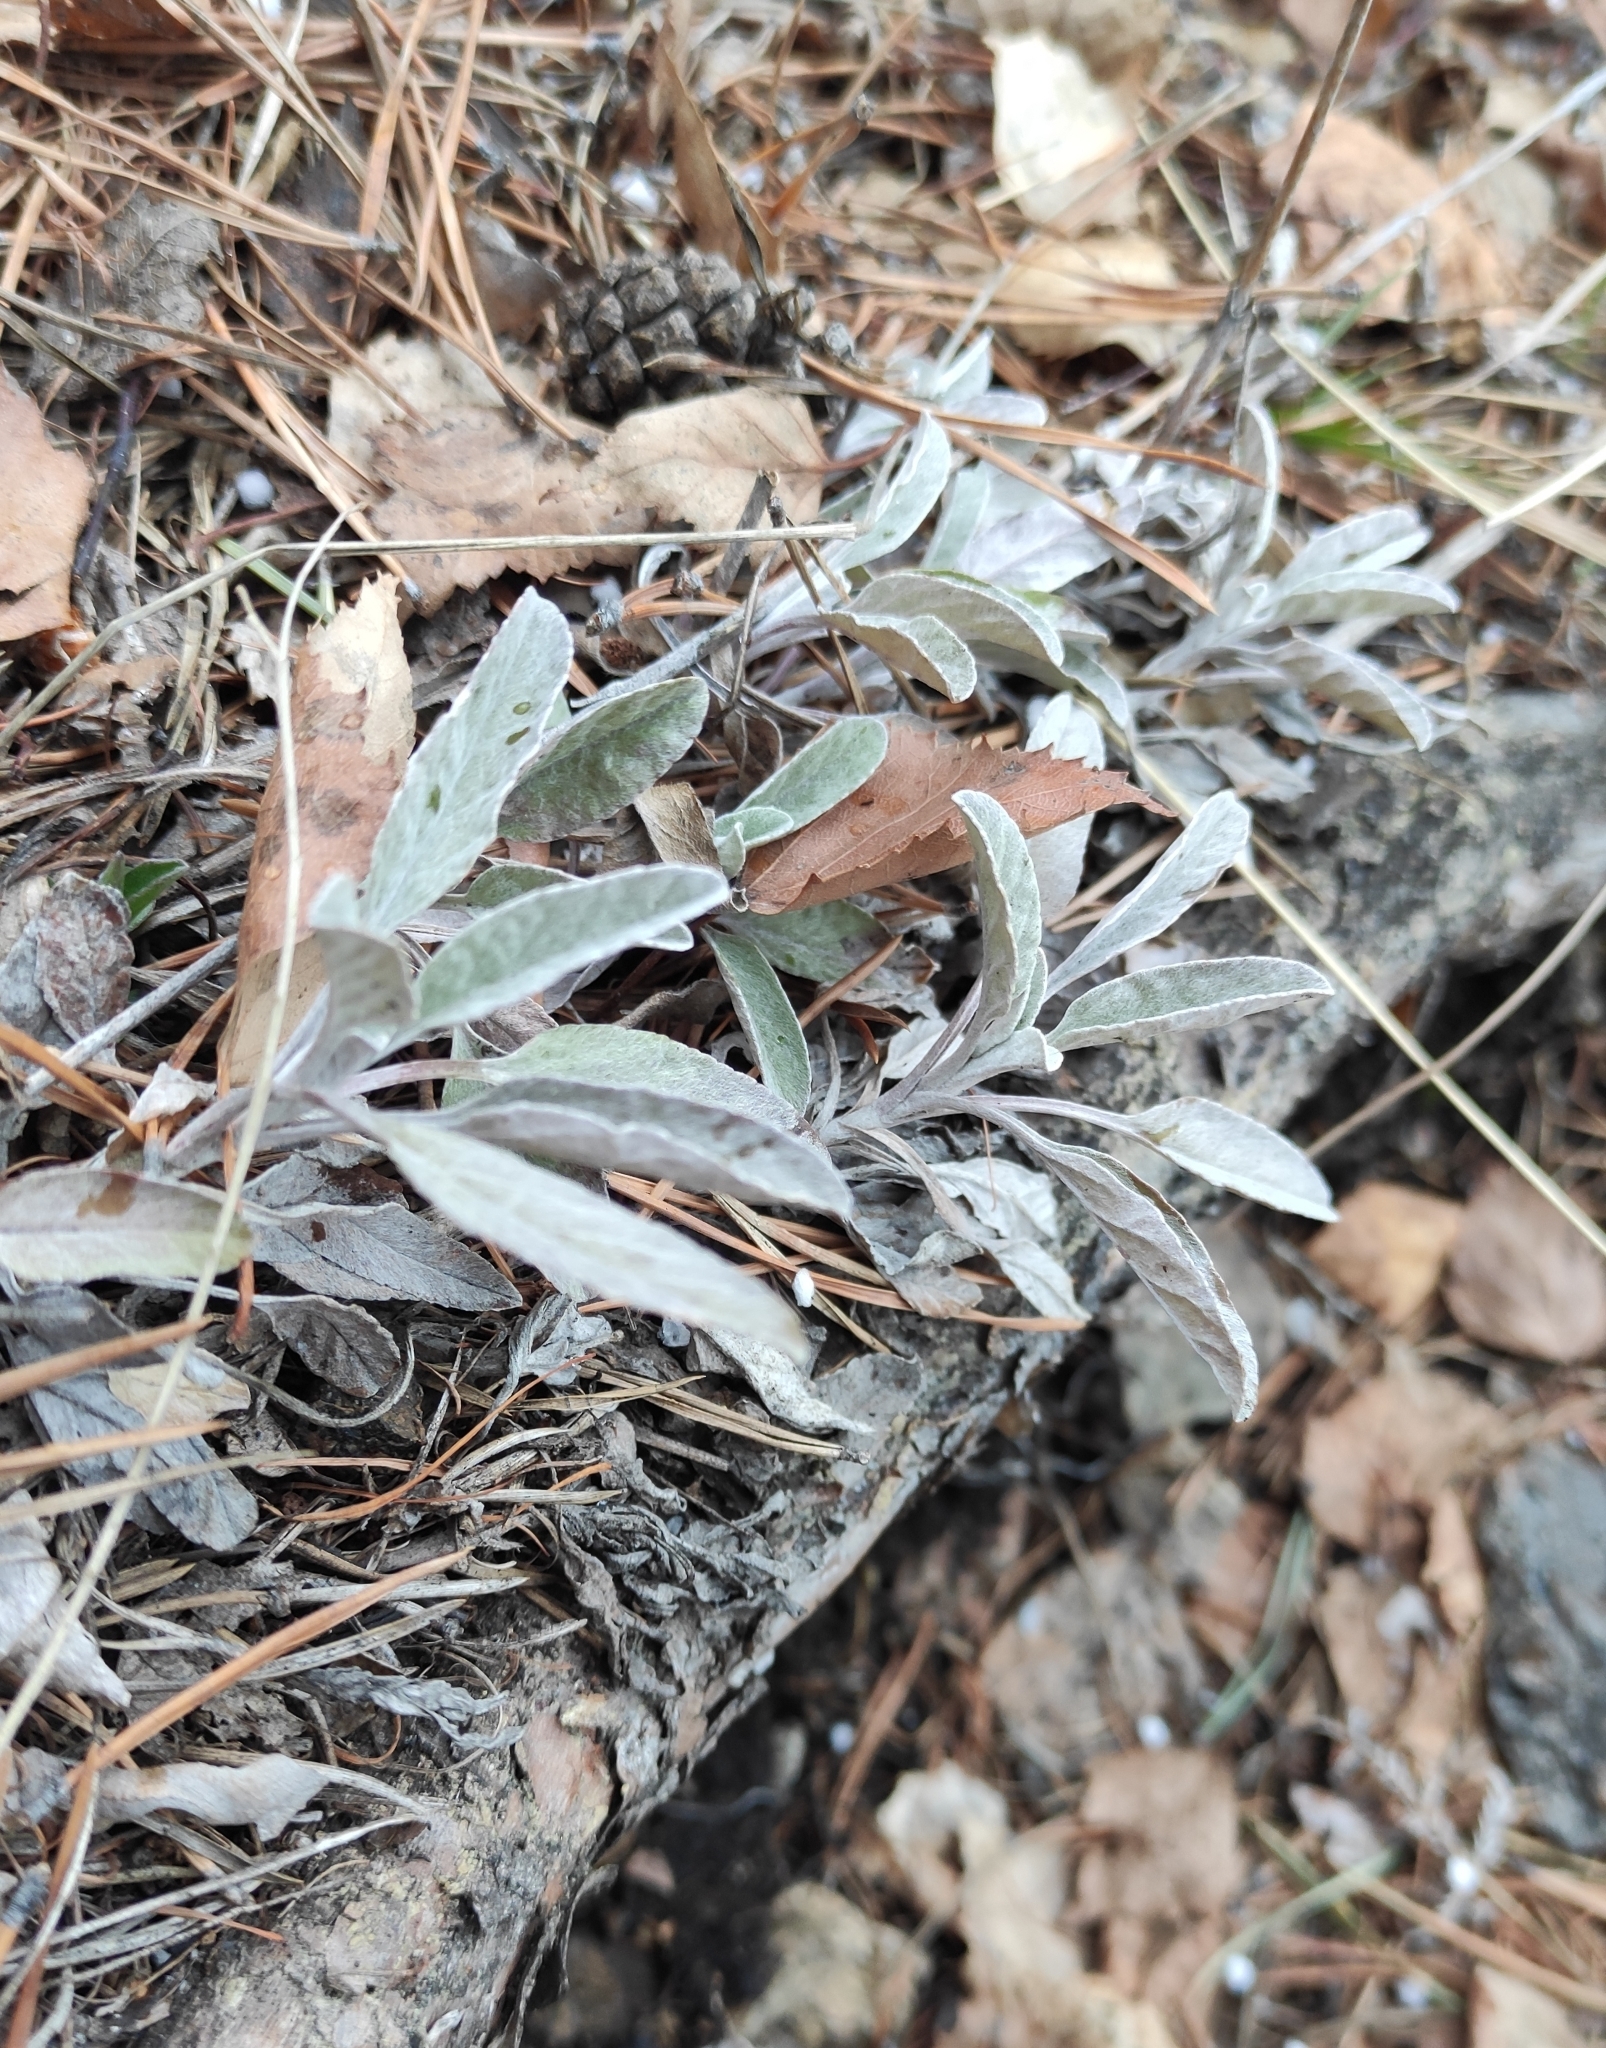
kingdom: Plantae
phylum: Tracheophyta
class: Magnoliopsida
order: Lamiales
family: Plantaginaceae
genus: Veronica
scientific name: Veronica incana
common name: Silver speedwell
